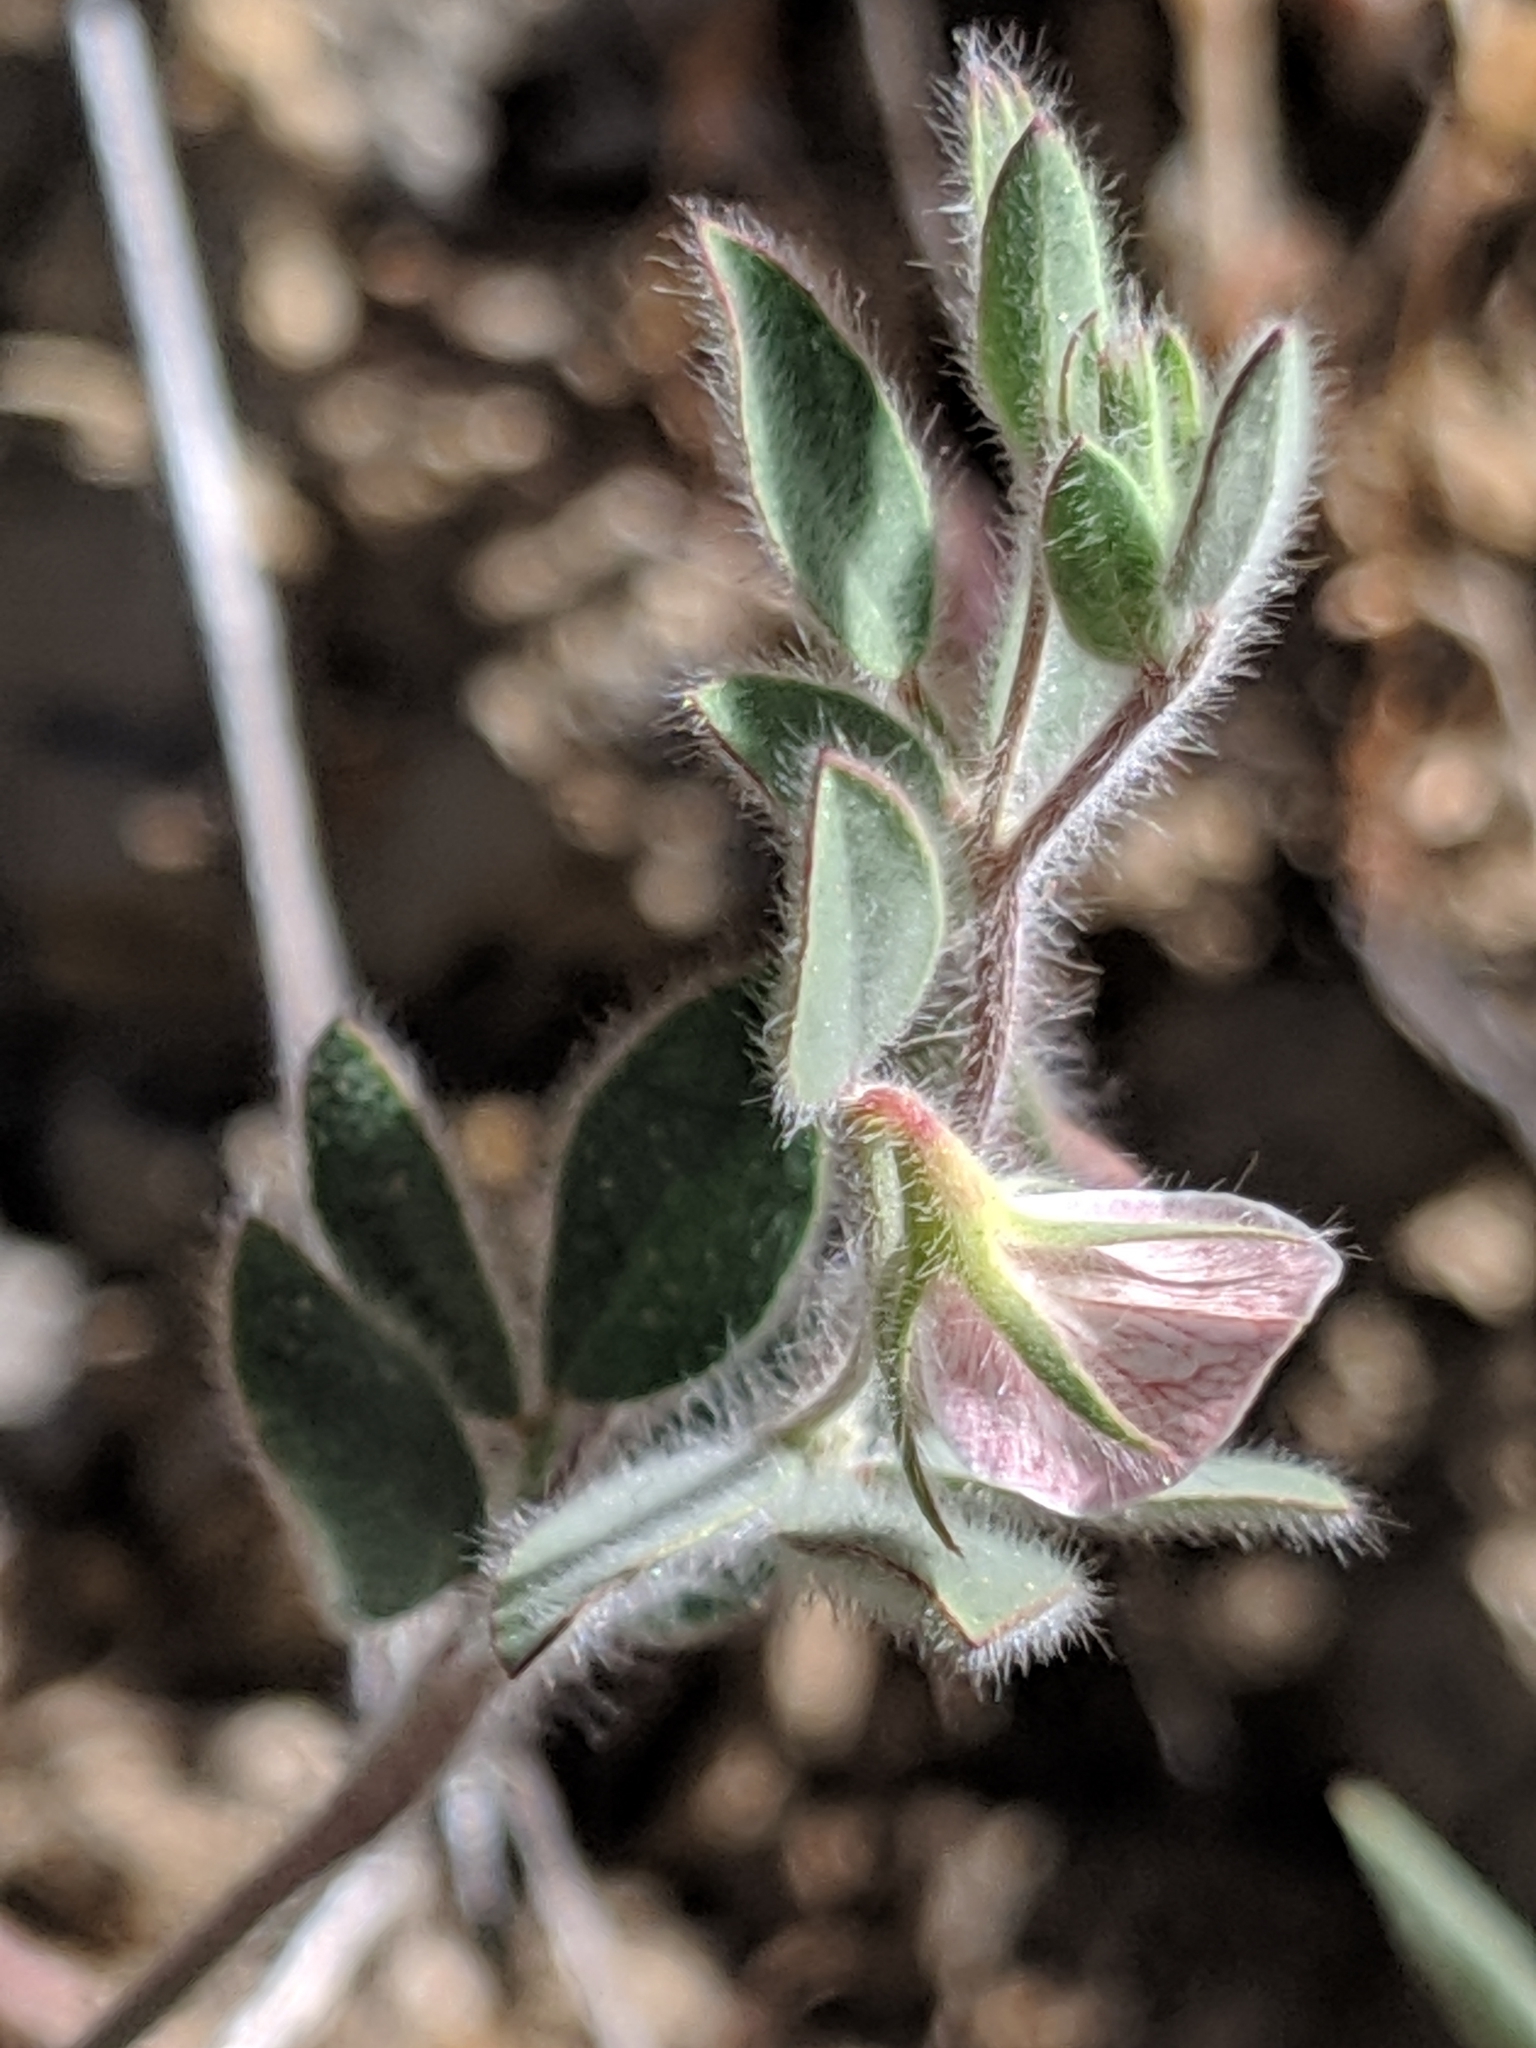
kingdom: Plantae
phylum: Tracheophyta
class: Magnoliopsida
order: Fabales
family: Fabaceae
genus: Acmispon
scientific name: Acmispon americanus
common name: American bird's-foot trefoil
